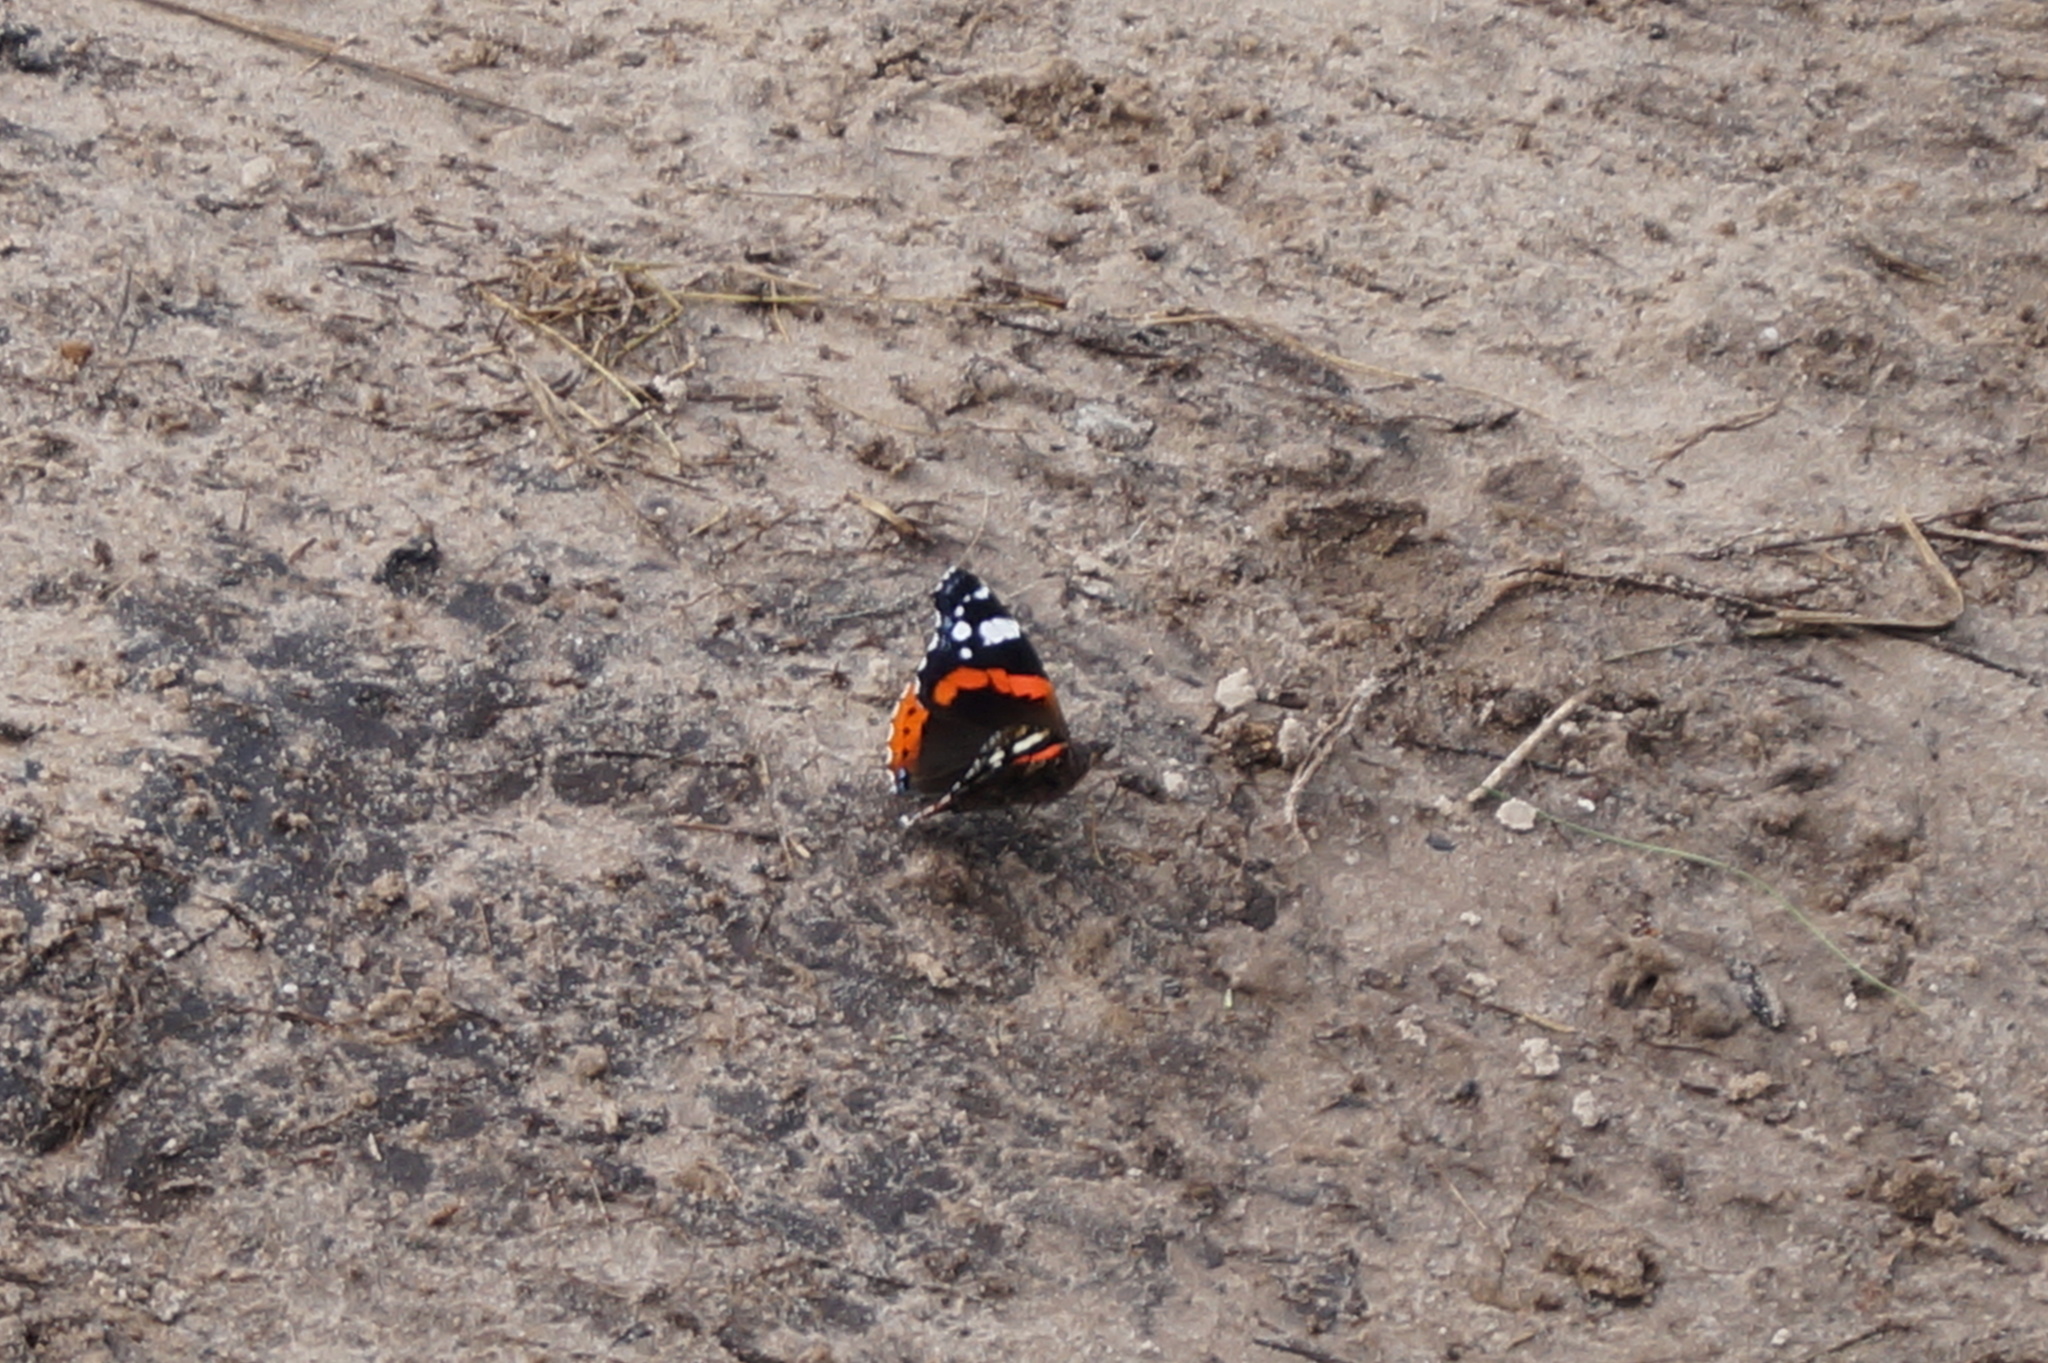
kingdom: Animalia
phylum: Arthropoda
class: Insecta
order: Lepidoptera
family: Nymphalidae
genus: Vanessa
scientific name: Vanessa atalanta
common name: Red admiral
